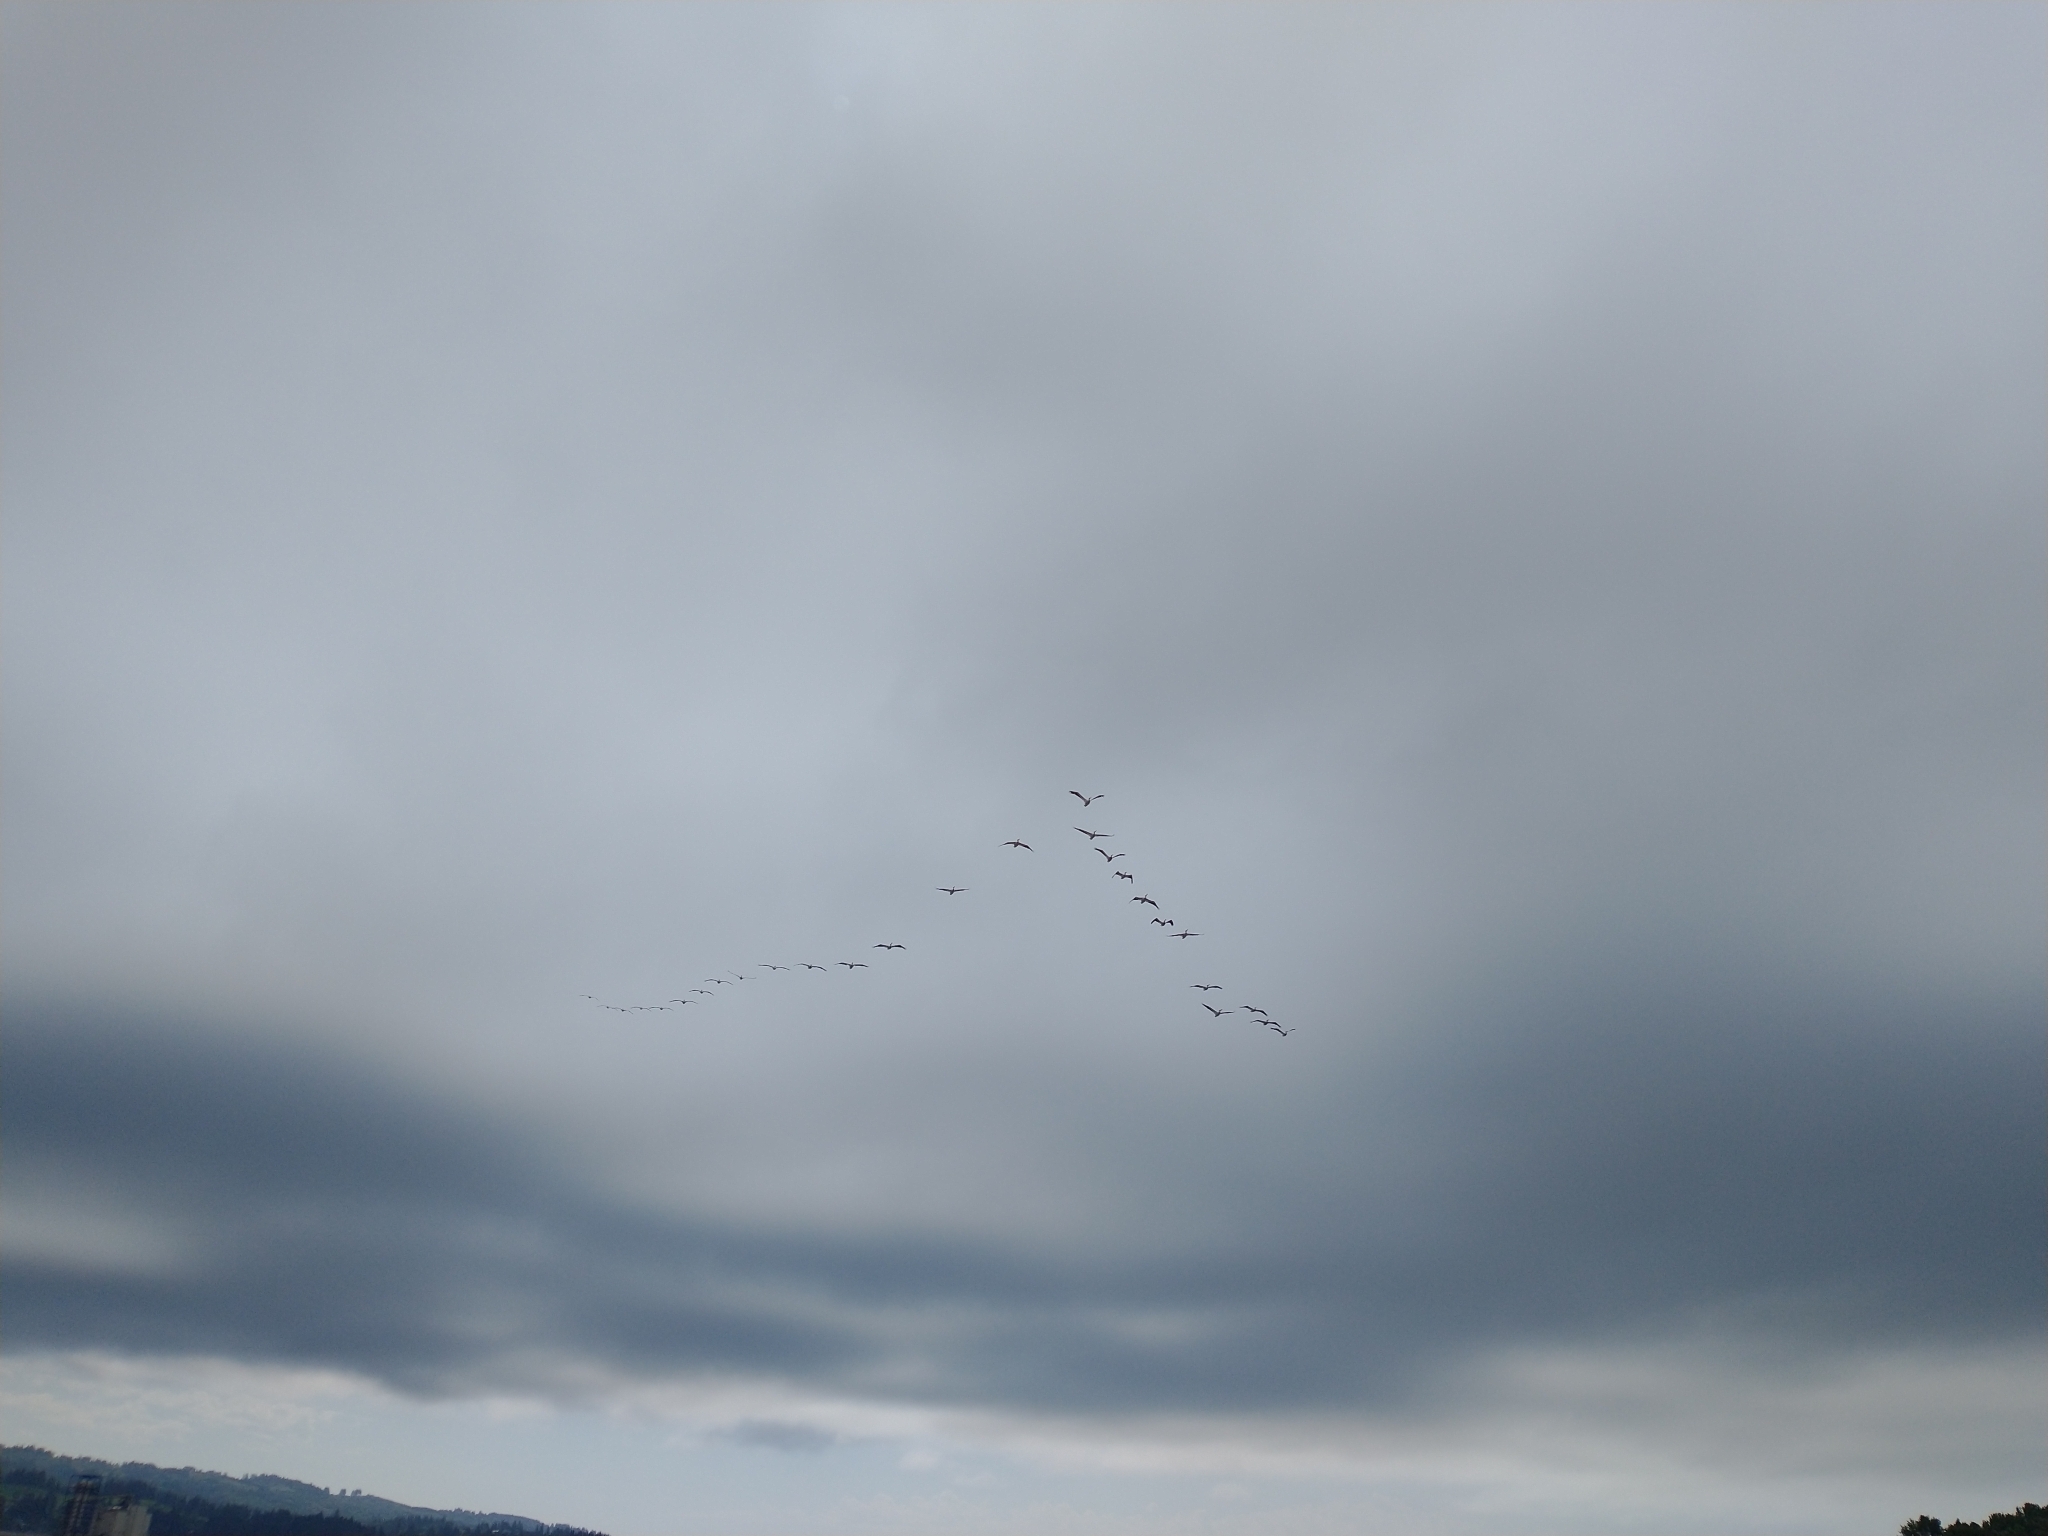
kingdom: Animalia
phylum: Chordata
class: Aves
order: Pelecaniformes
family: Pelecanidae
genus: Pelecanus
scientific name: Pelecanus erythrorhynchos
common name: American white pelican
